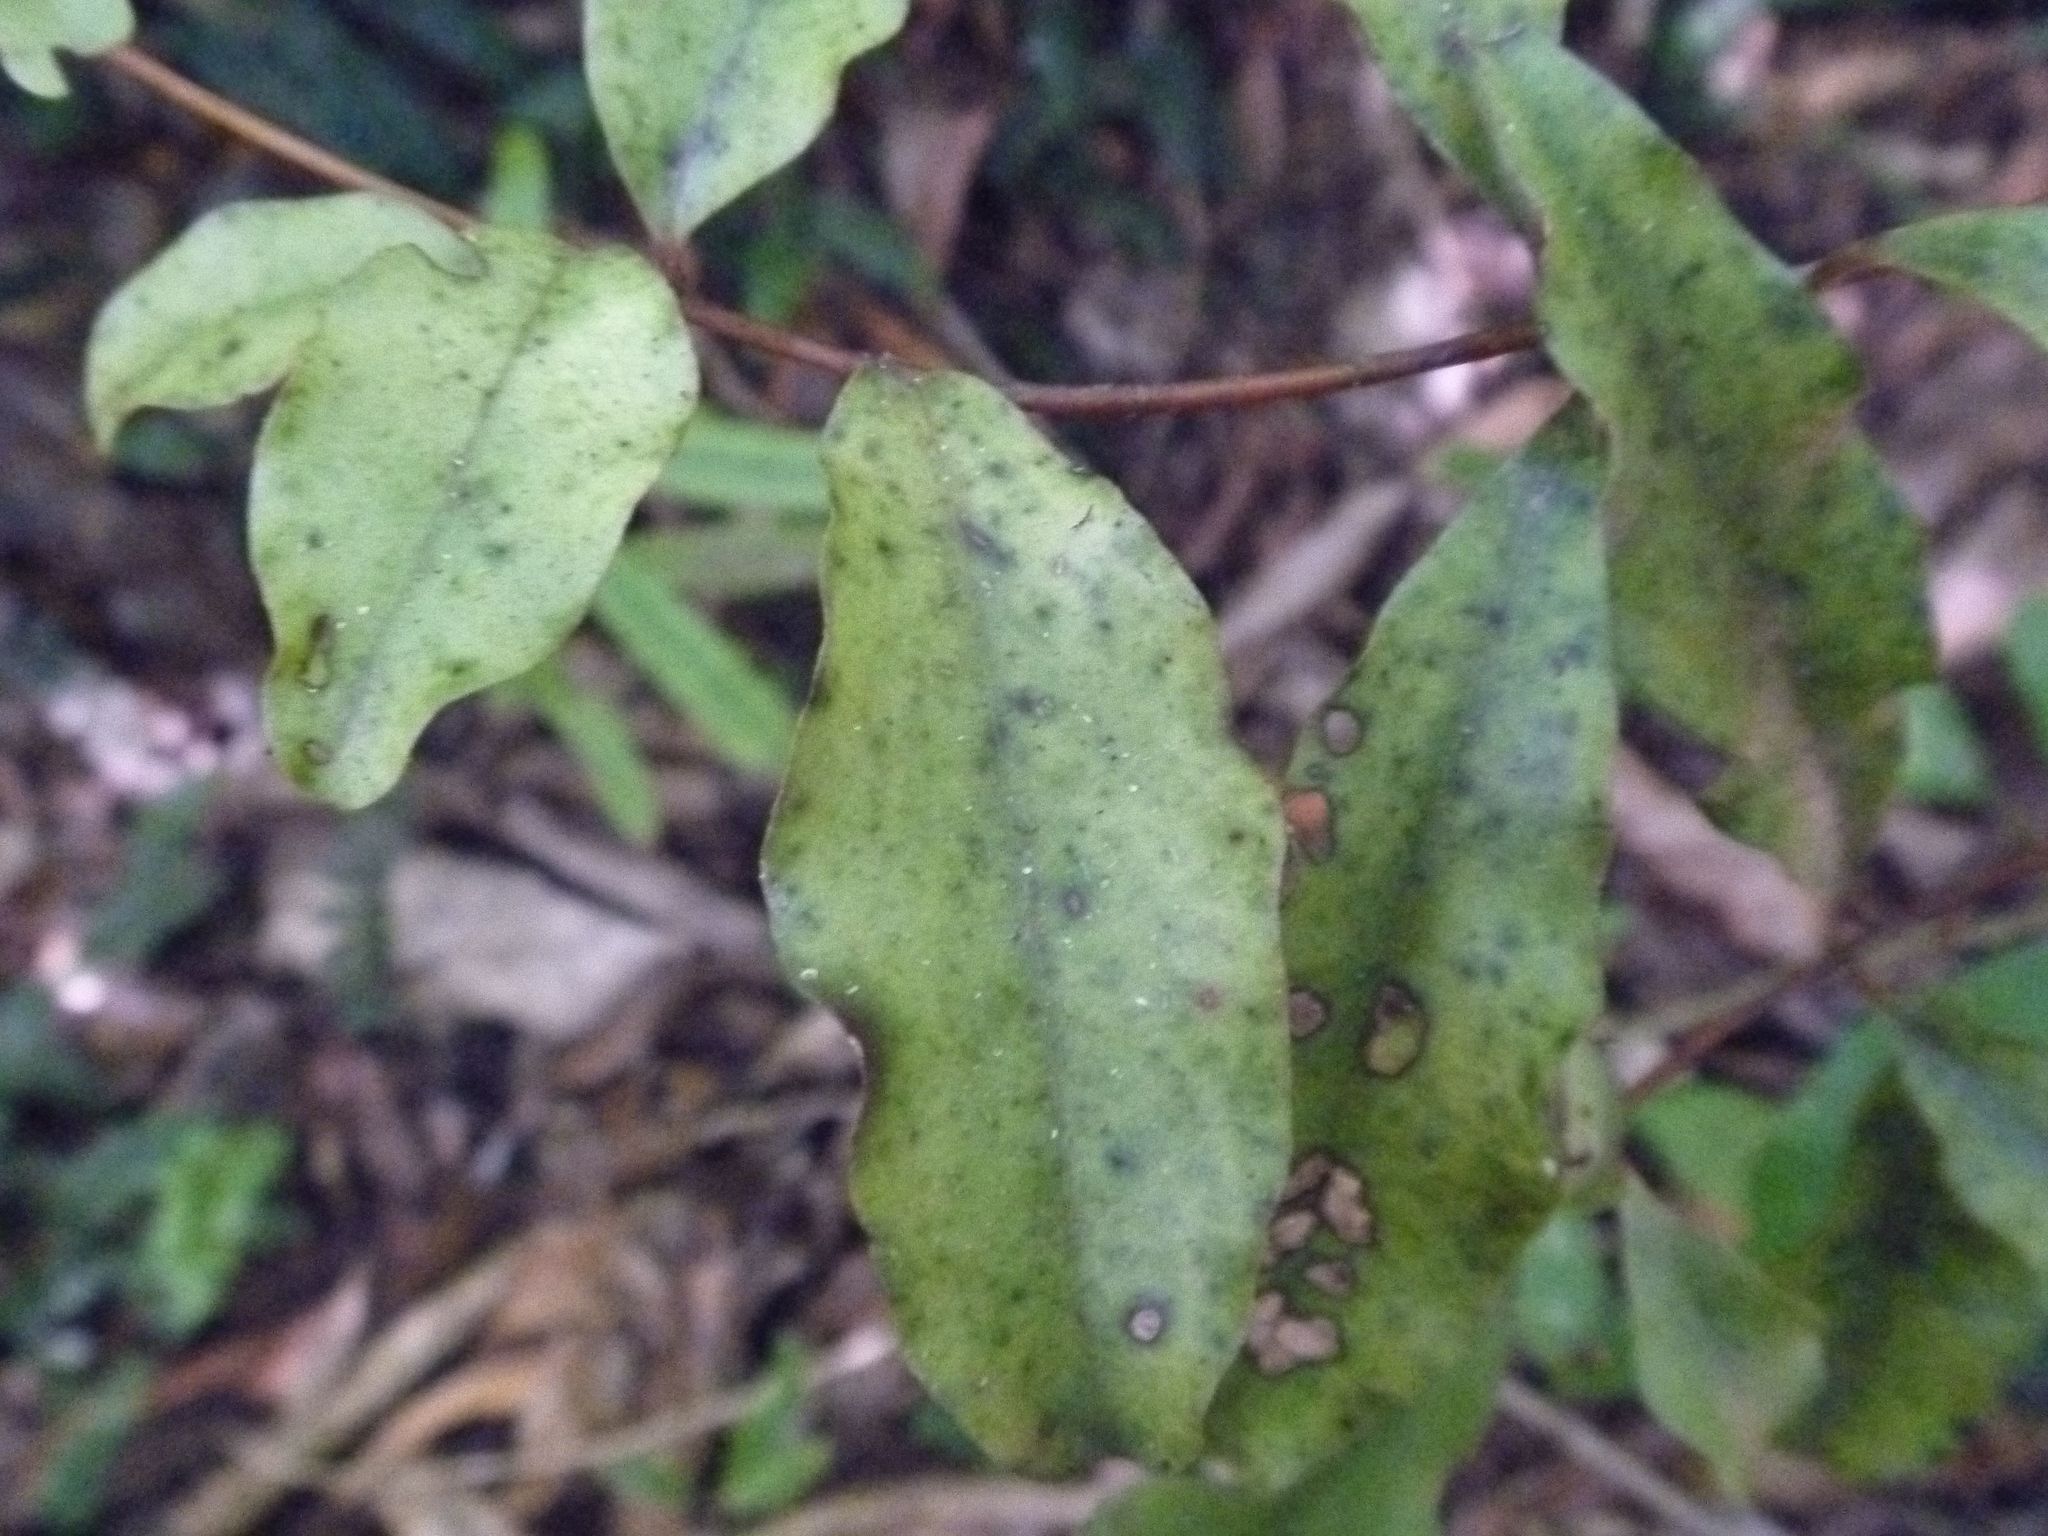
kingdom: Plantae
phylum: Tracheophyta
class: Magnoliopsida
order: Ericales
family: Primulaceae
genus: Myrsine
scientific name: Myrsine australis
